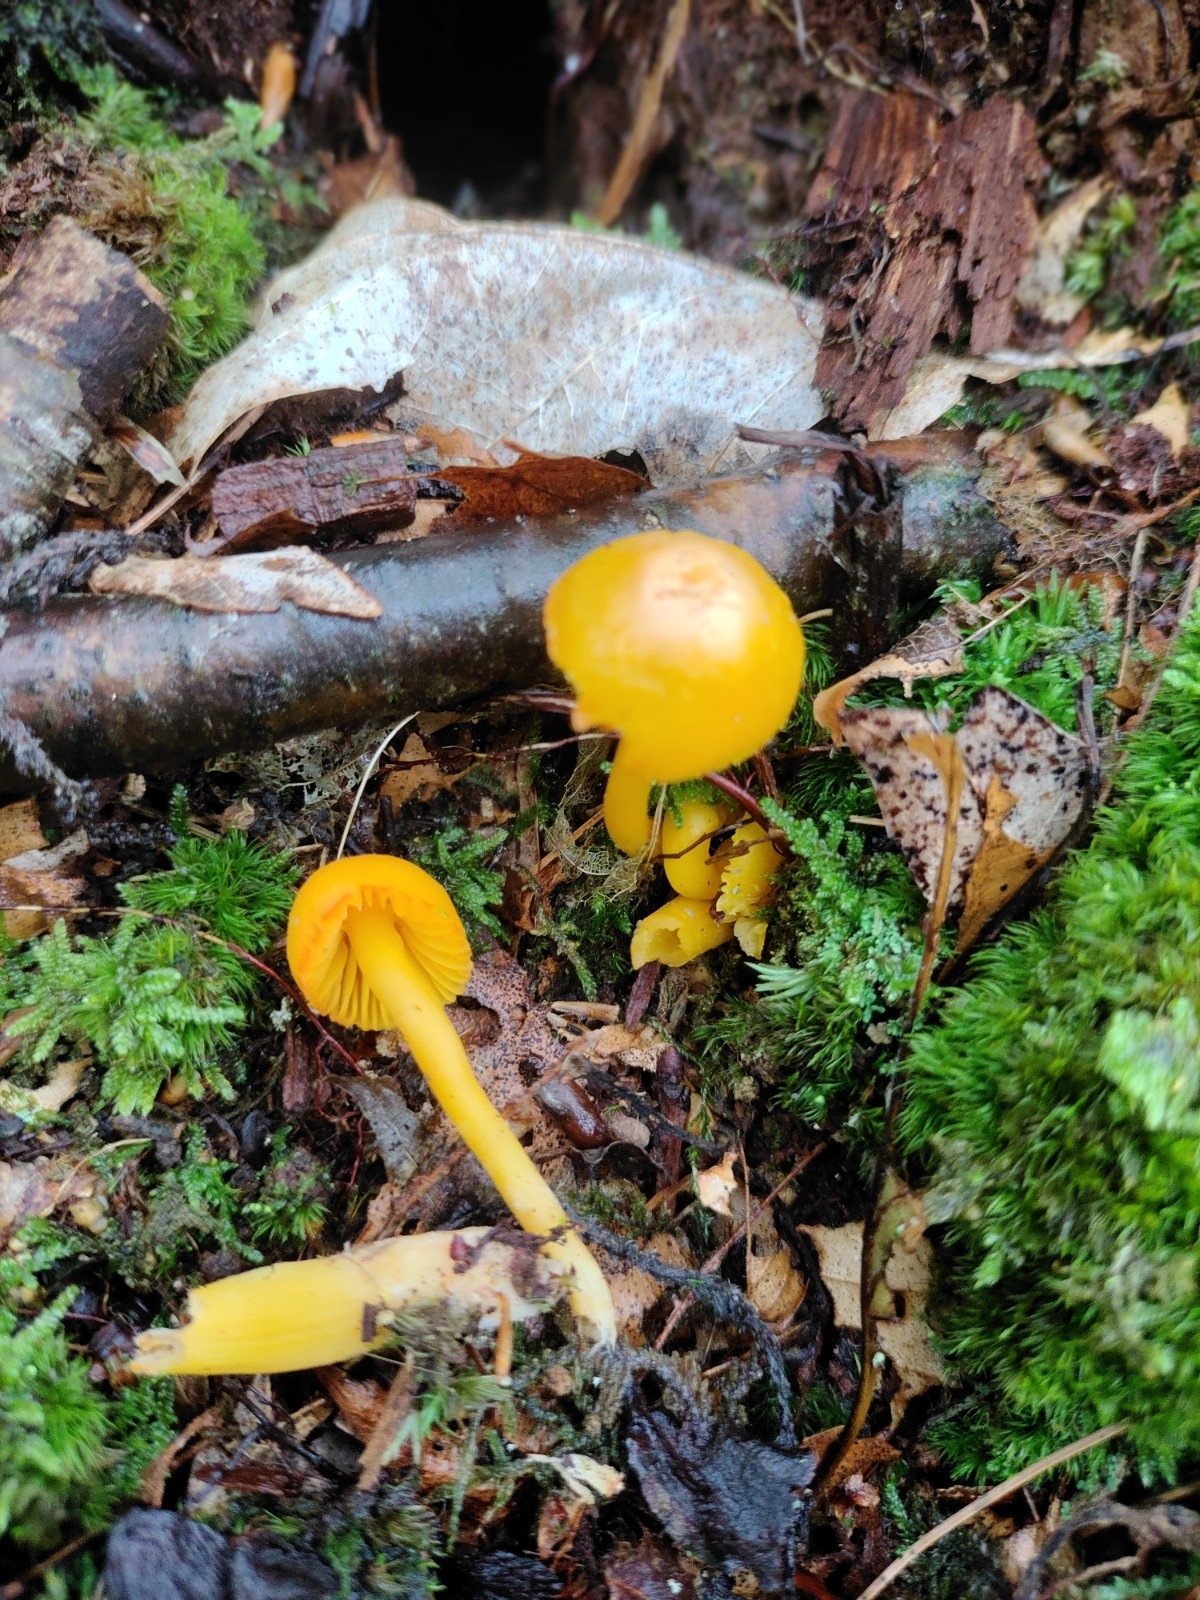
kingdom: Fungi
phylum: Basidiomycota
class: Agaricomycetes
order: Agaricales
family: Hygrophoraceae
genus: Humidicutis
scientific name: Humidicutis marginata
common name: Orange gilled waxcap
